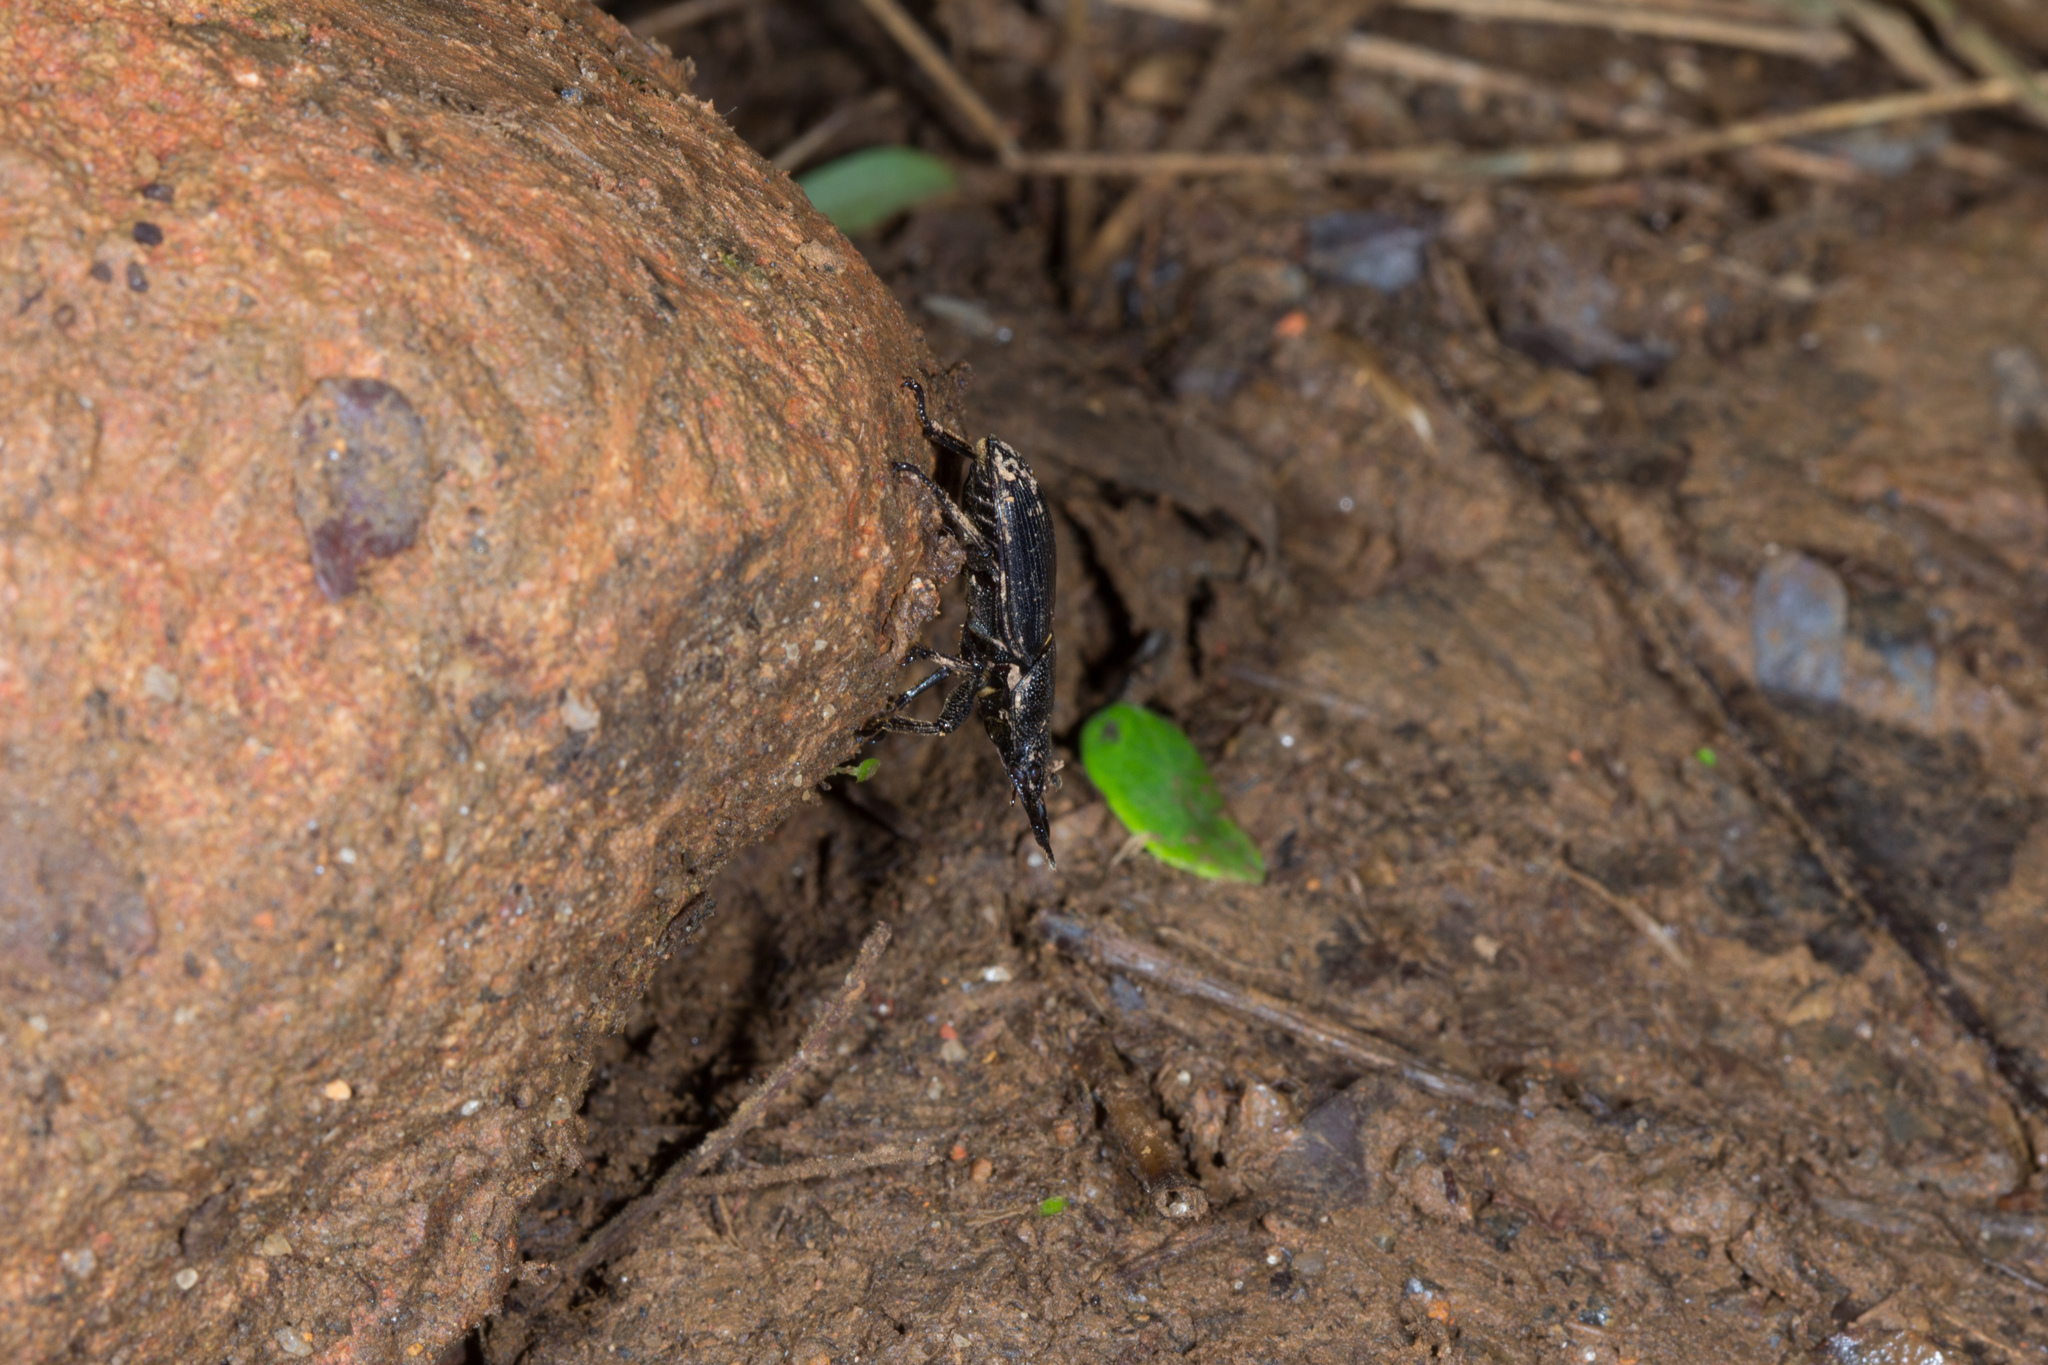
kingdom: Animalia
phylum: Arthropoda
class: Insecta
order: Coleoptera
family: Lucanidae
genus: Aegus
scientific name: Aegus chelifer
